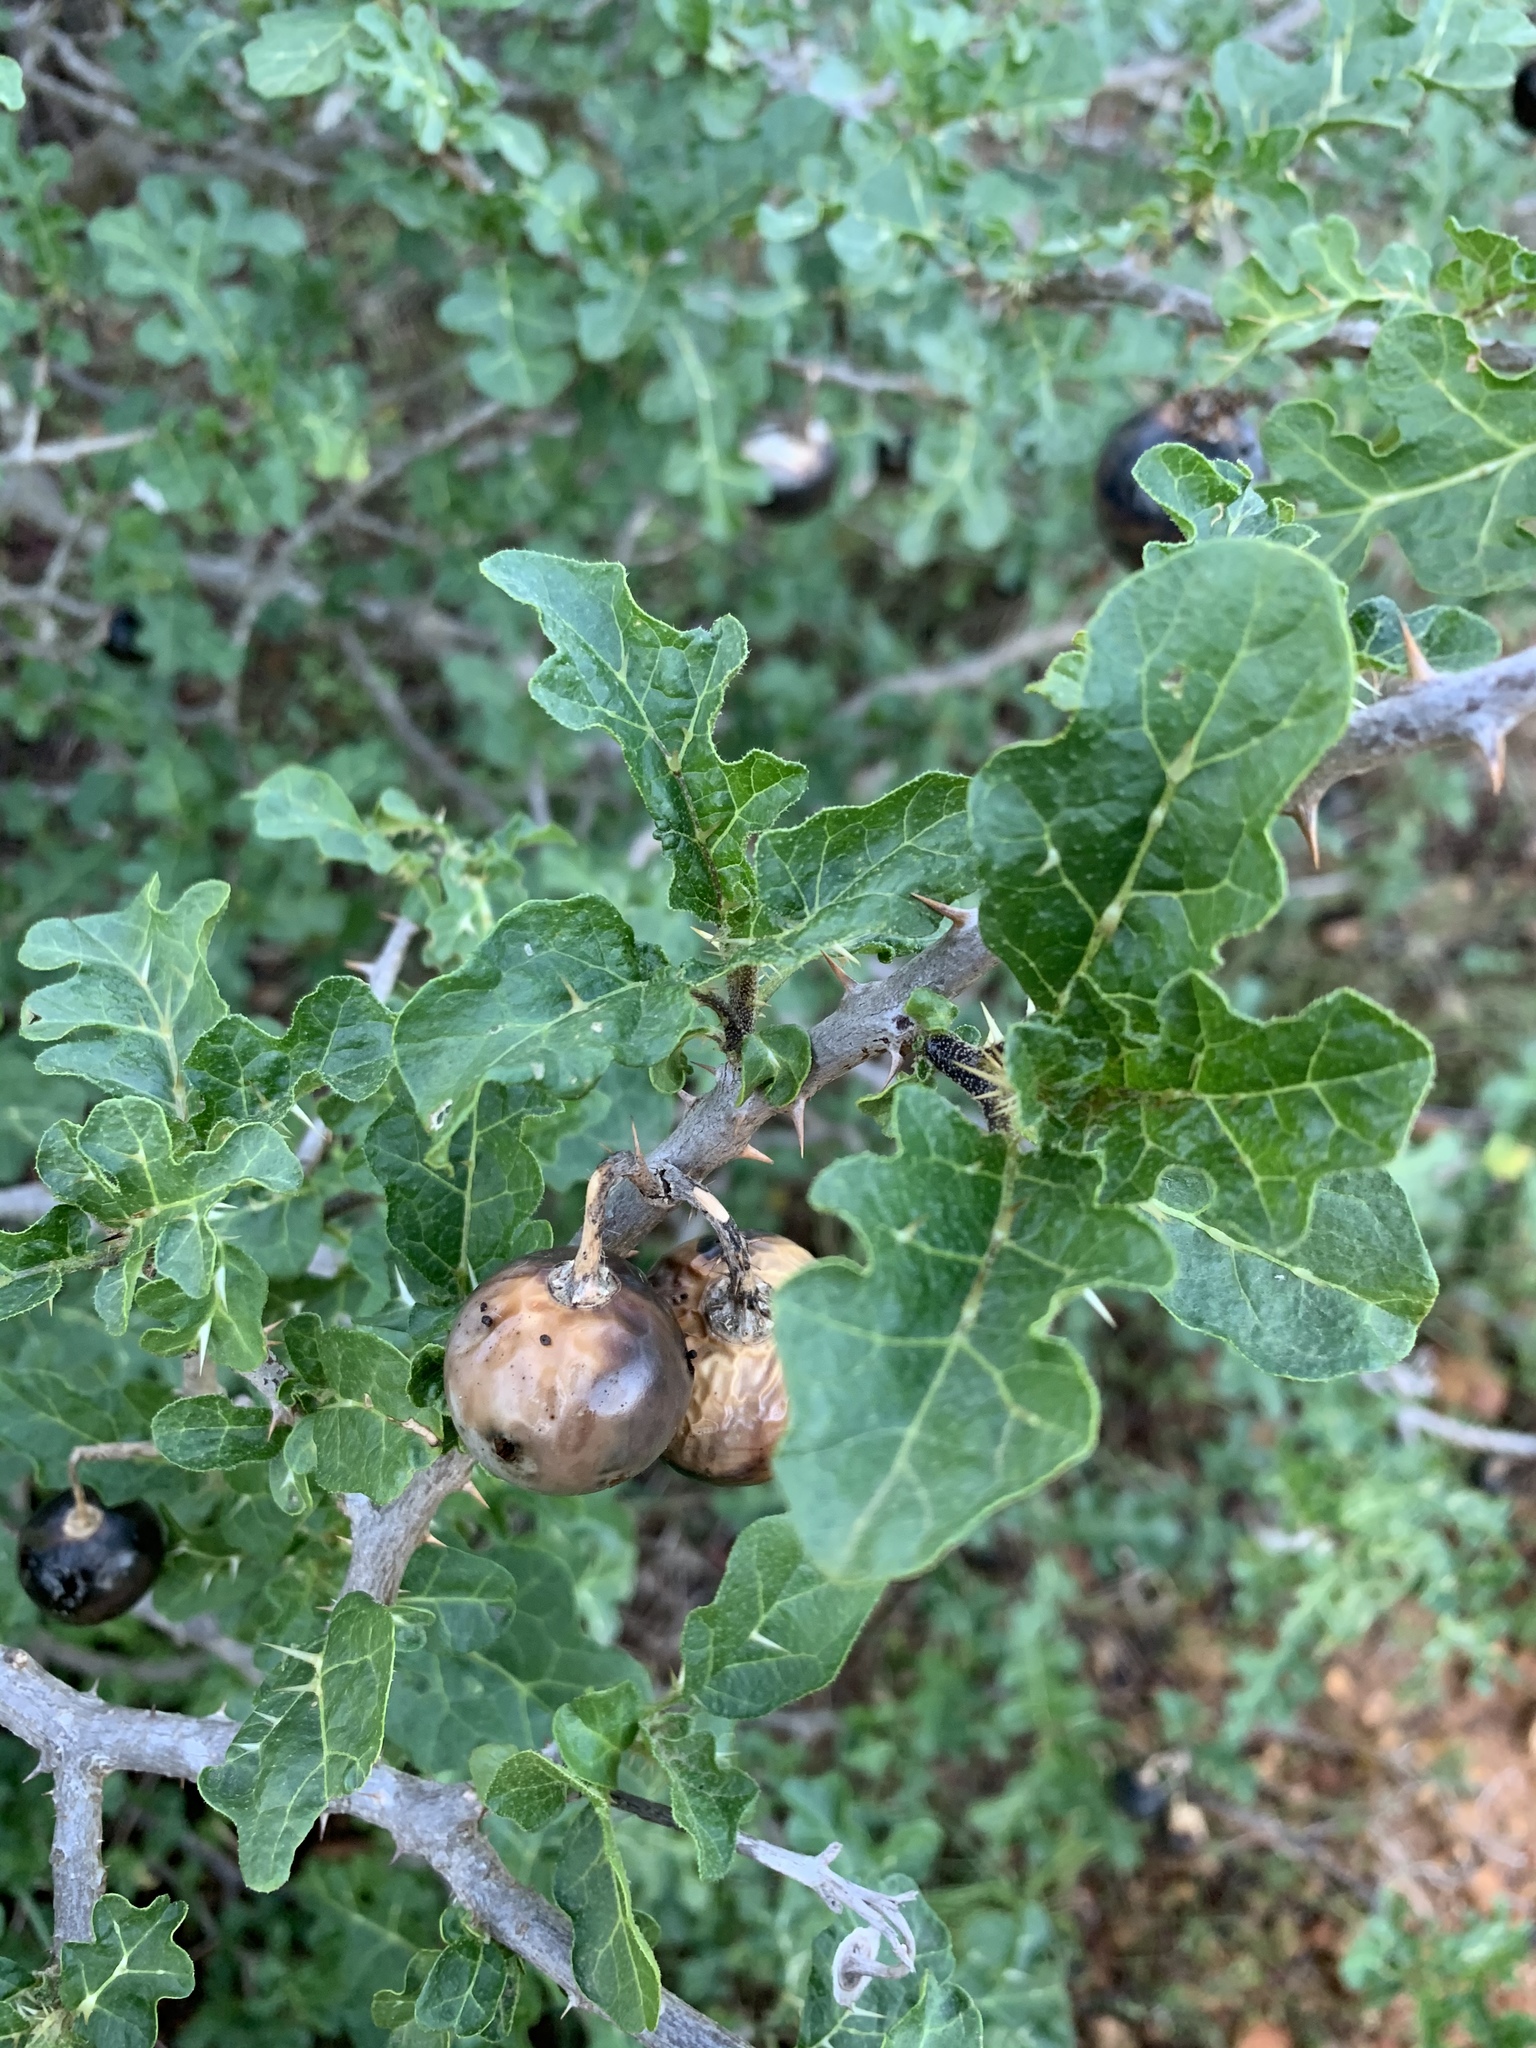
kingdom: Plantae
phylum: Tracheophyta
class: Magnoliopsida
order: Solanales
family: Solanaceae
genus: Solanum
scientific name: Solanum linnaeanum
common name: Nightshade
